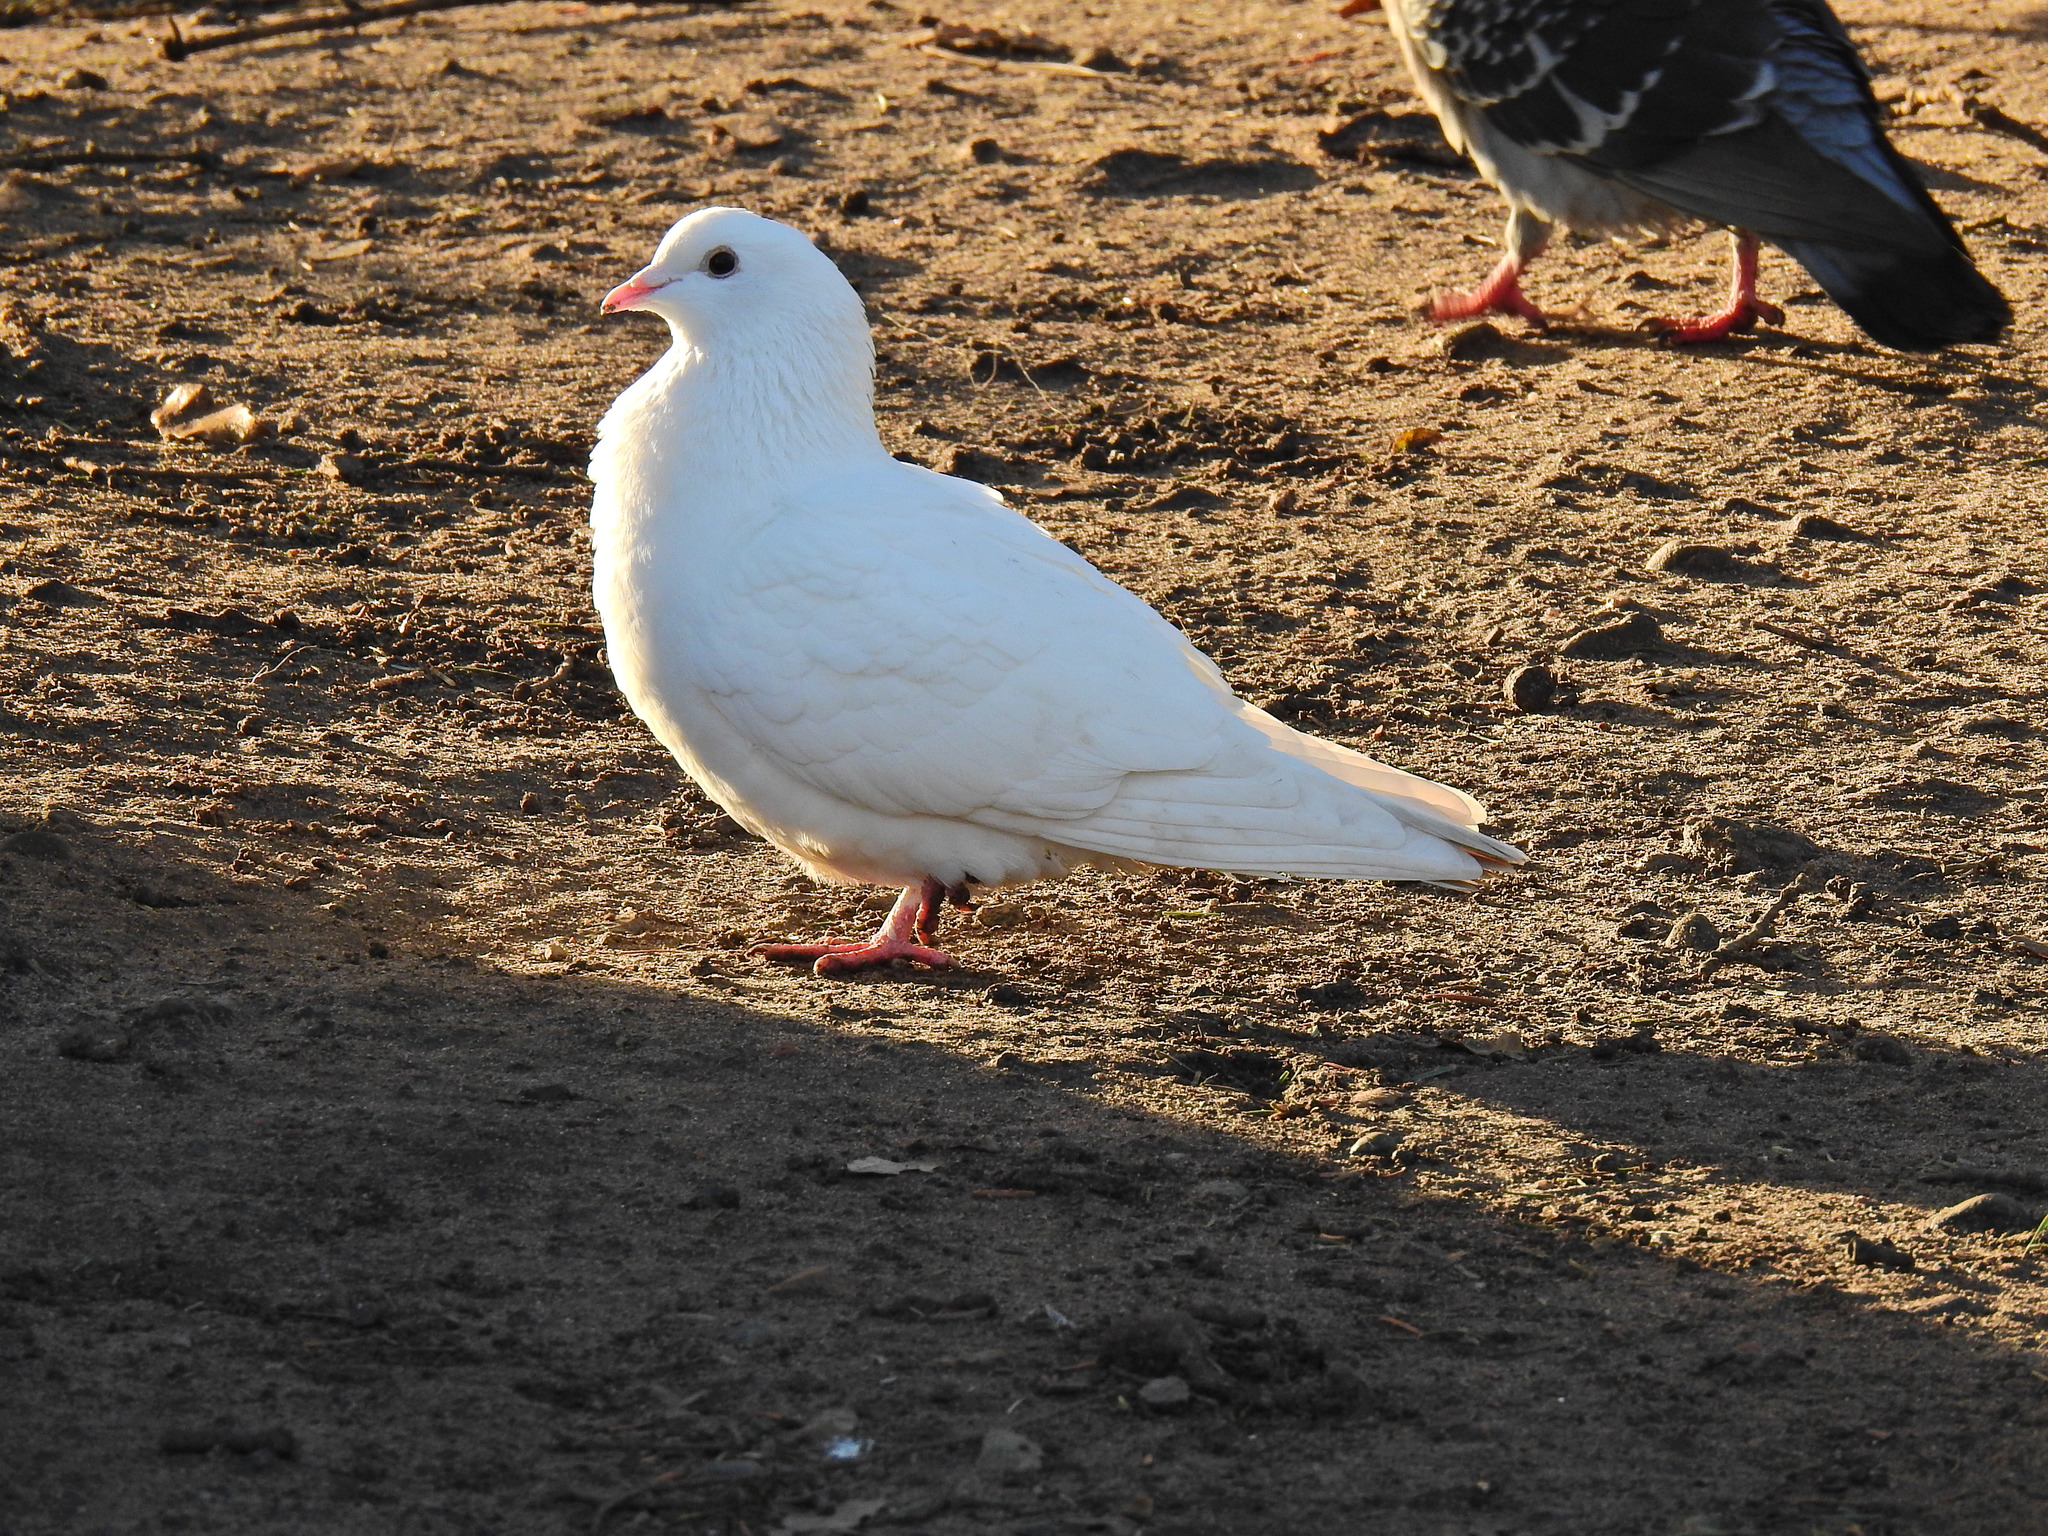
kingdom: Animalia
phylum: Chordata
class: Aves
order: Columbiformes
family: Columbidae
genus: Columba
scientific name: Columba livia
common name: Rock pigeon
